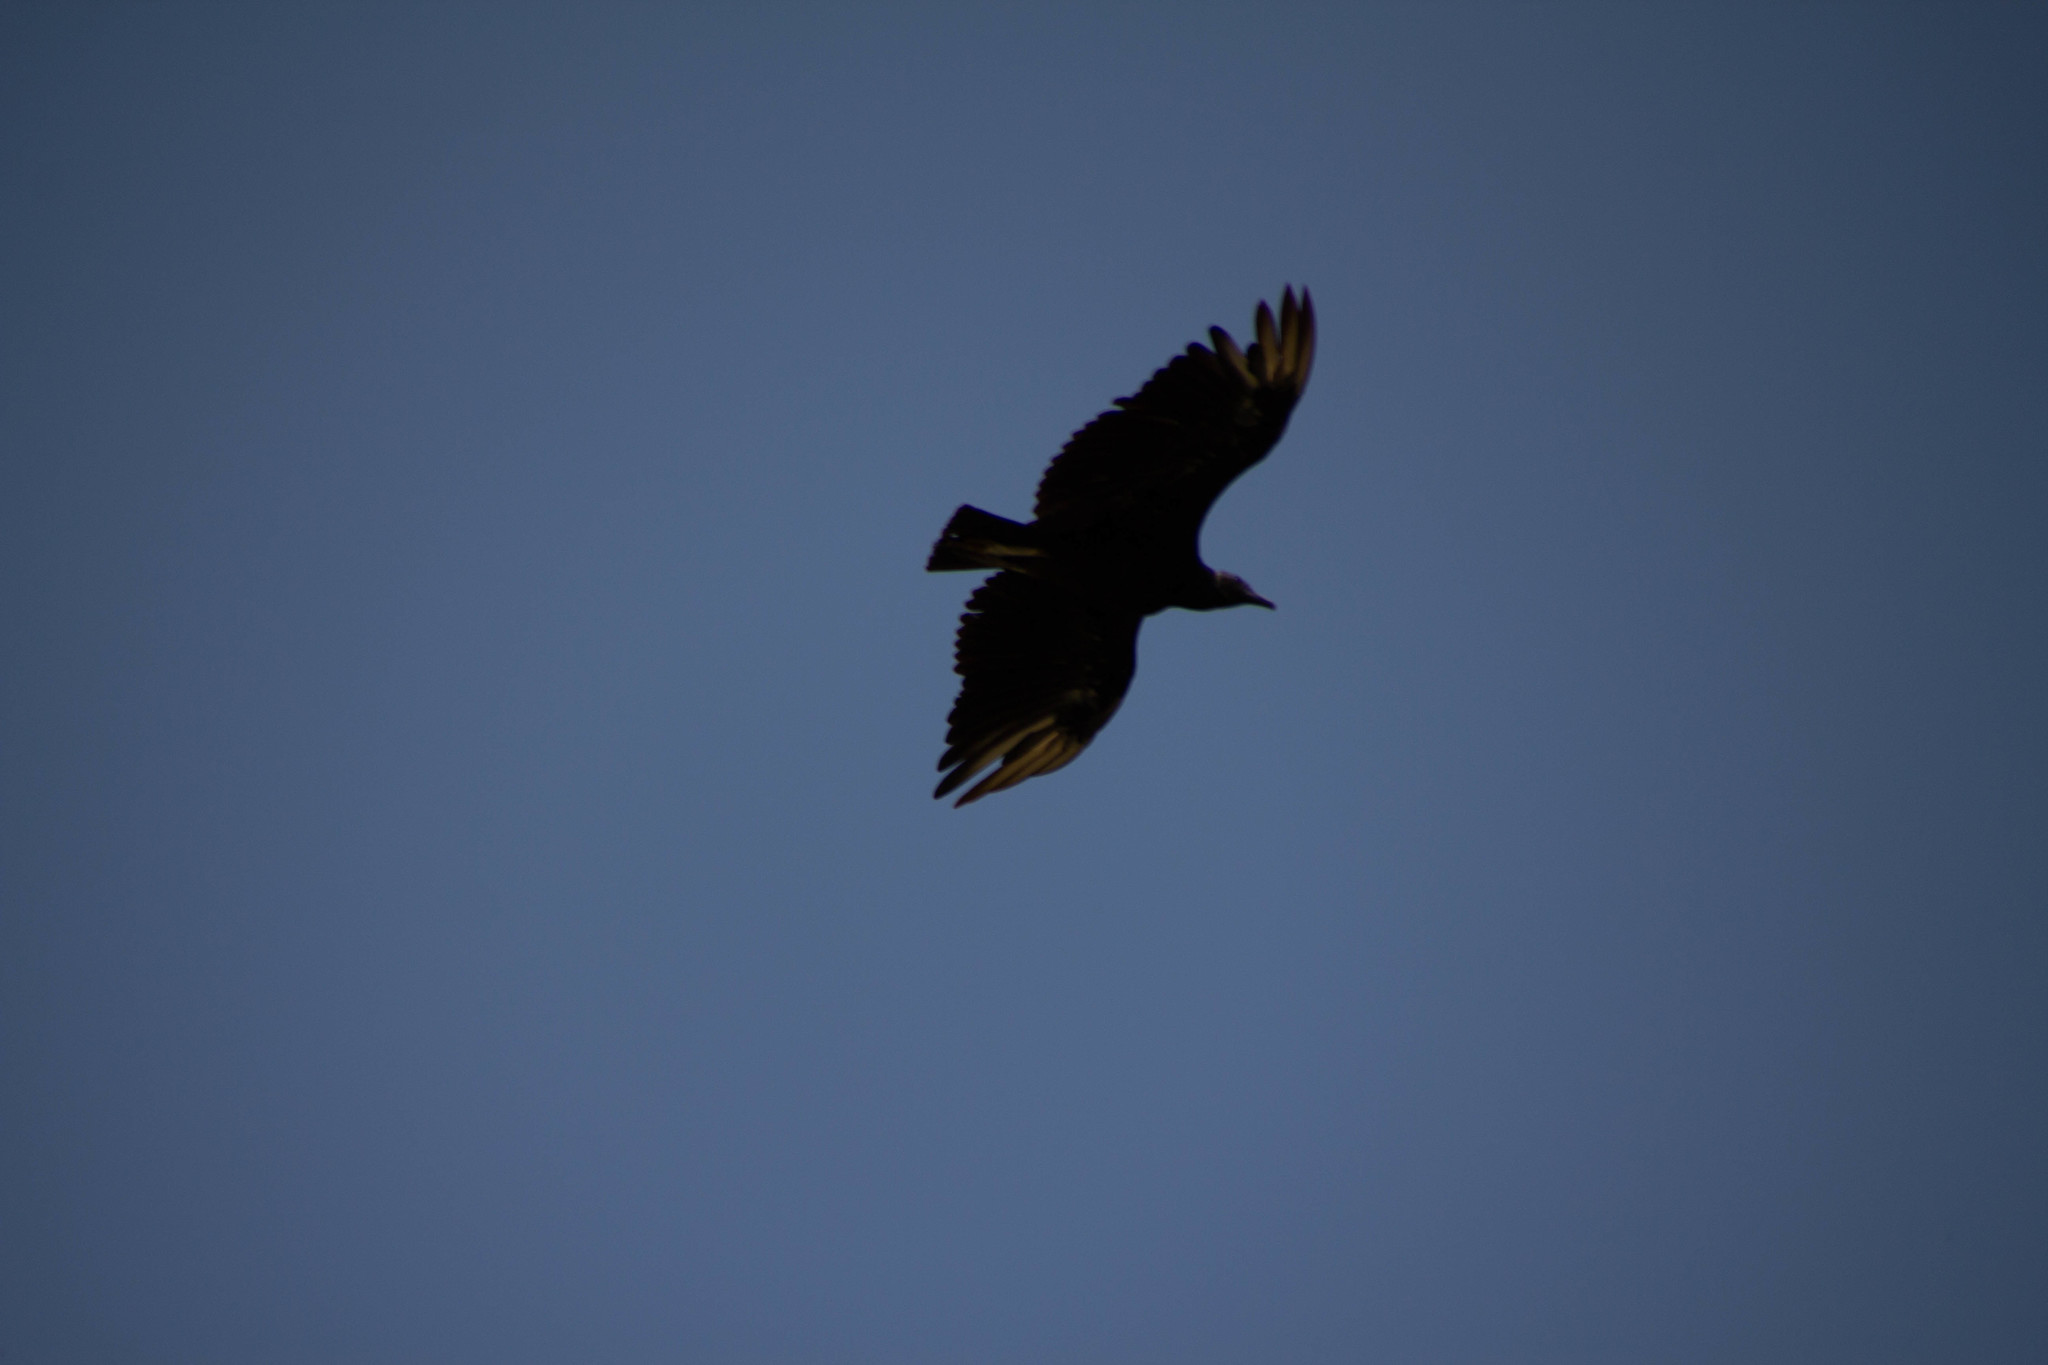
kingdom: Animalia
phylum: Chordata
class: Aves
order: Accipitriformes
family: Cathartidae
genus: Coragyps
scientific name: Coragyps atratus
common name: Black vulture
